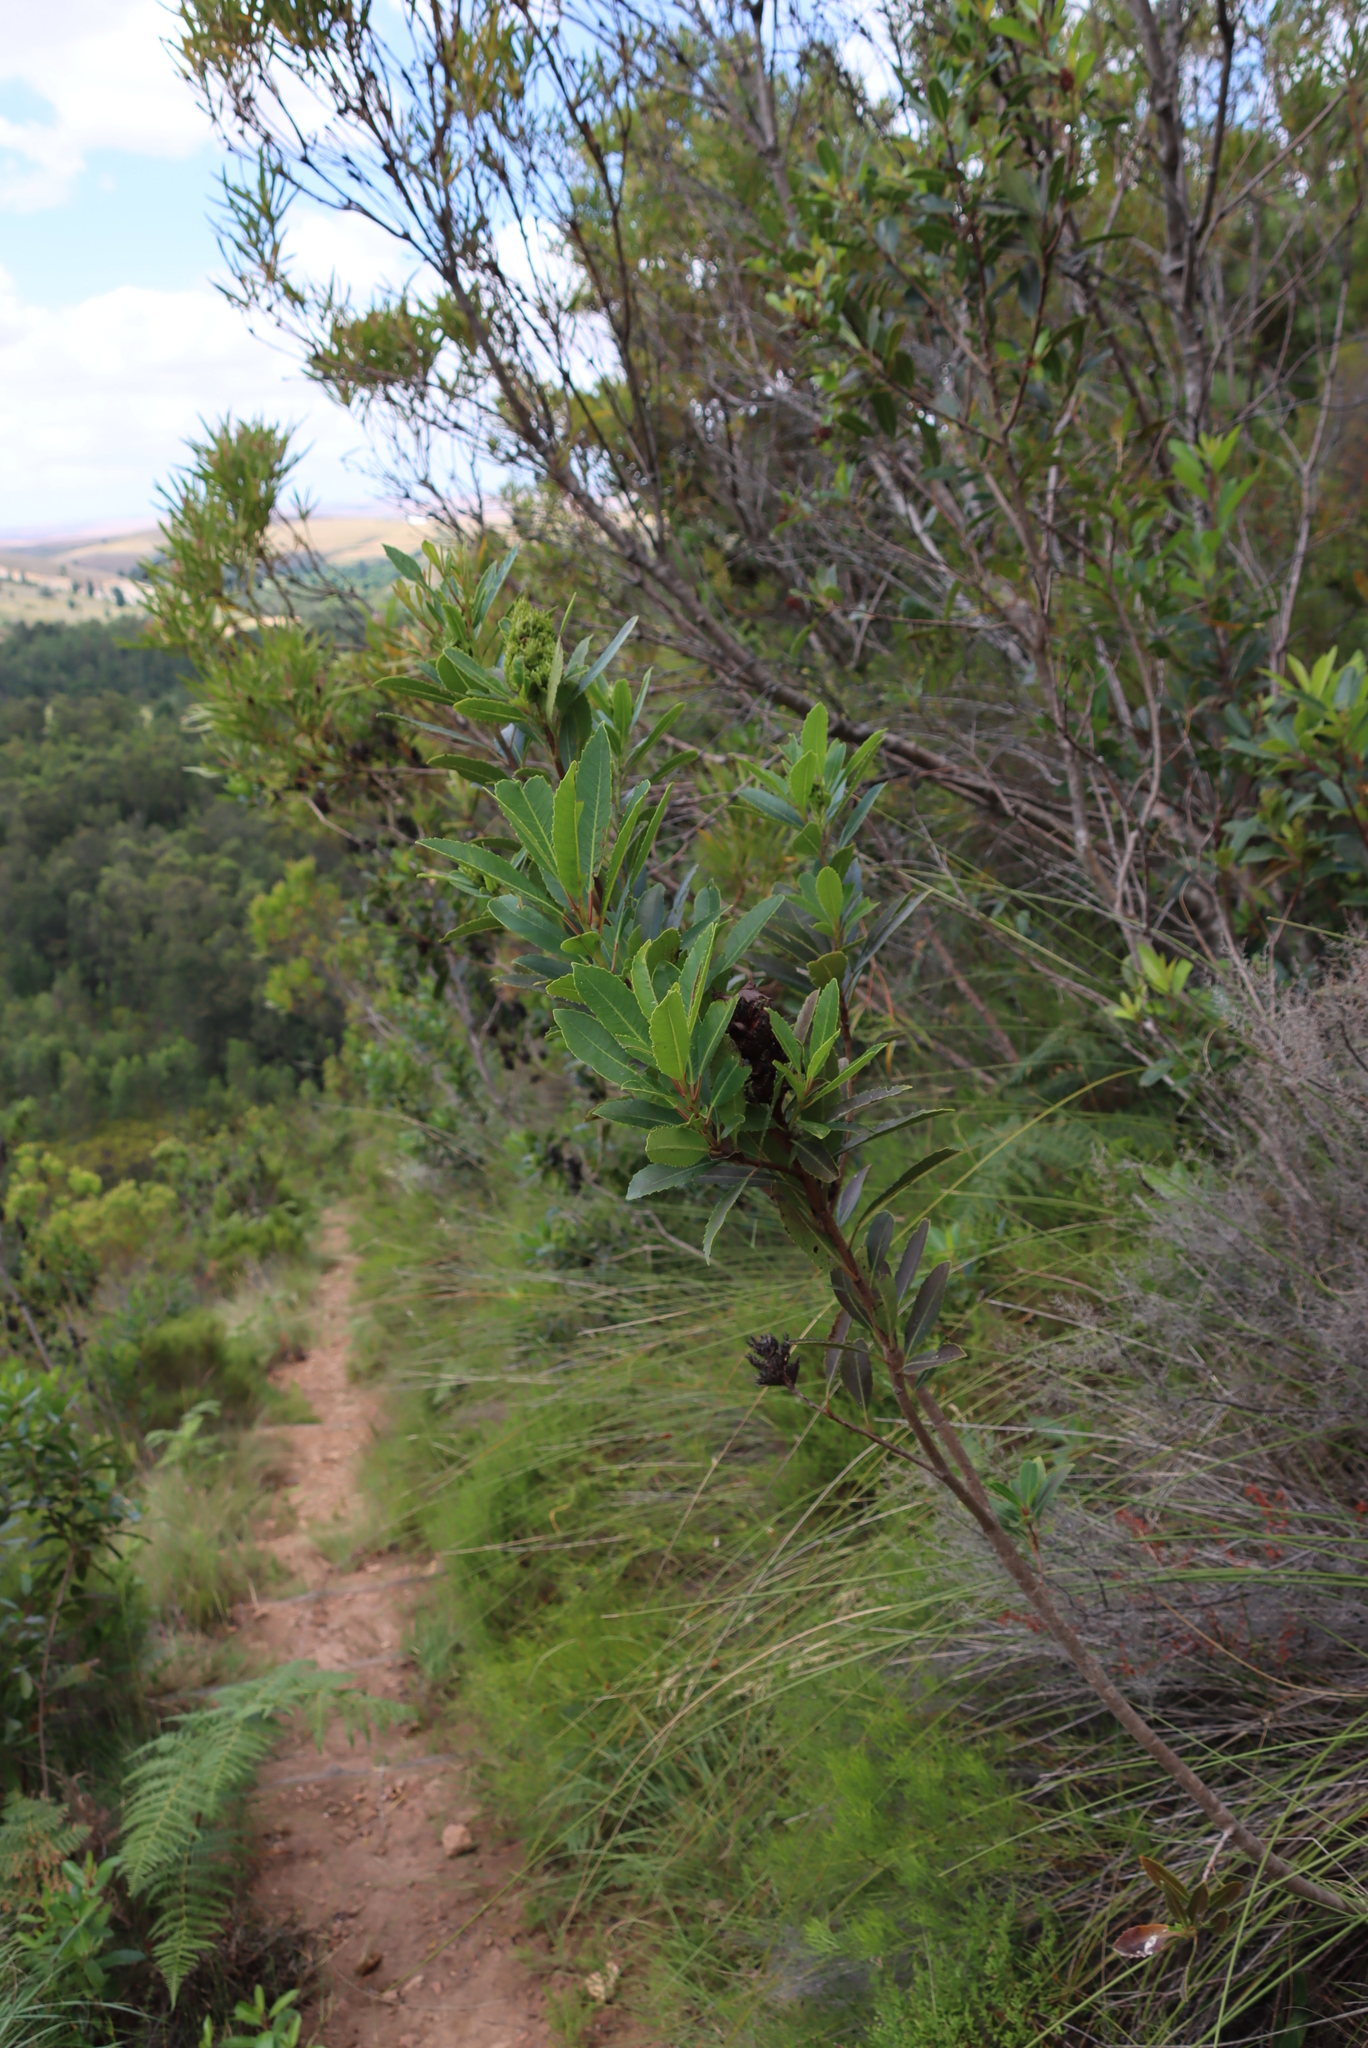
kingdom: Plantae
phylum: Tracheophyta
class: Magnoliopsida
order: Sapindales
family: Anacardiaceae
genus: Laurophyllus
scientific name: Laurophyllus capensis
